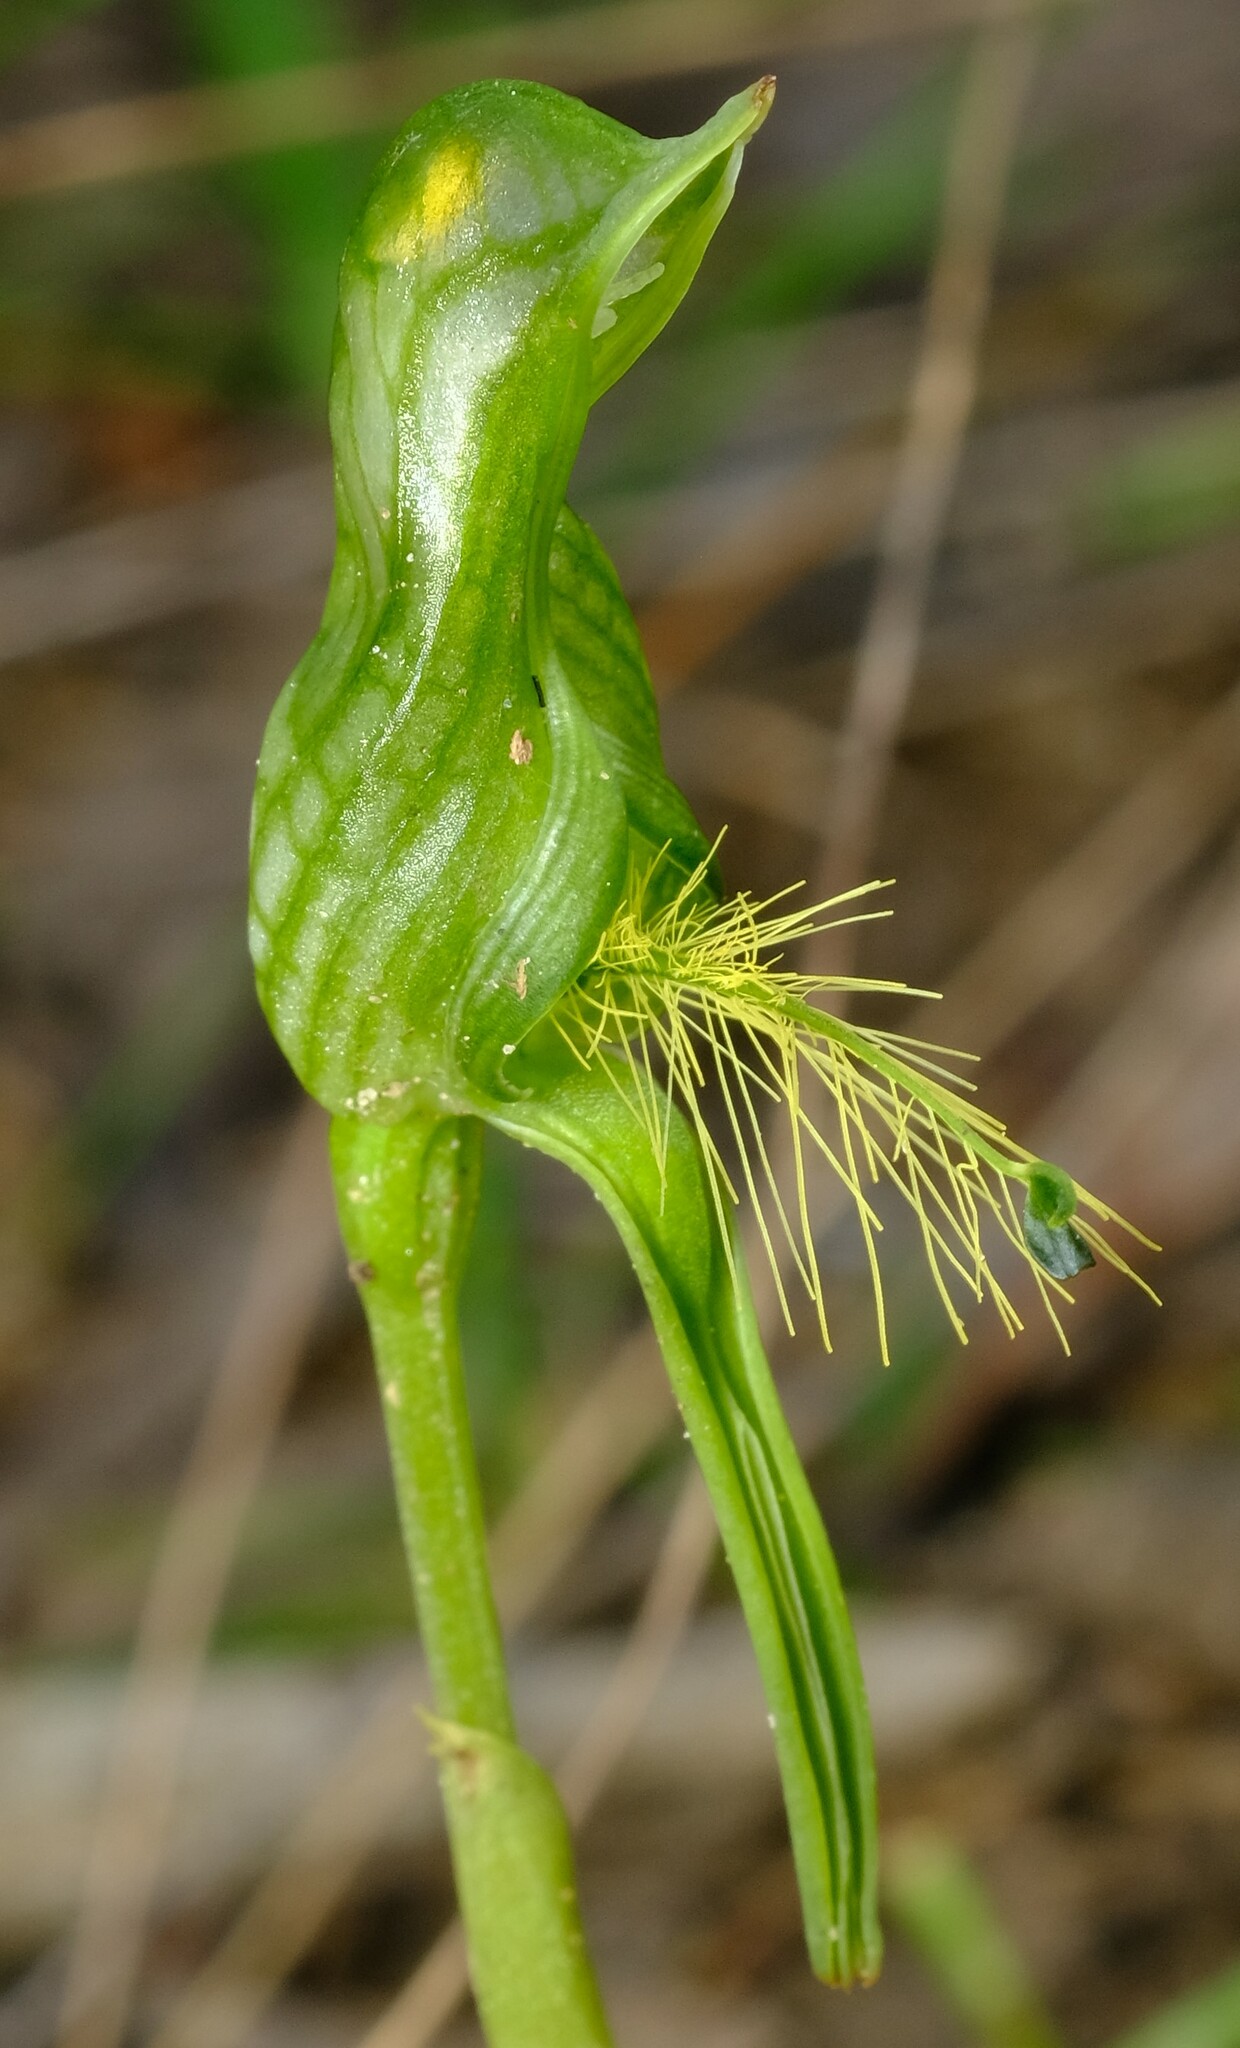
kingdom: Plantae
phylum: Tracheophyta
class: Liliopsida
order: Asparagales
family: Orchidaceae
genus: Pterostylis
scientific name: Pterostylis unicornis
